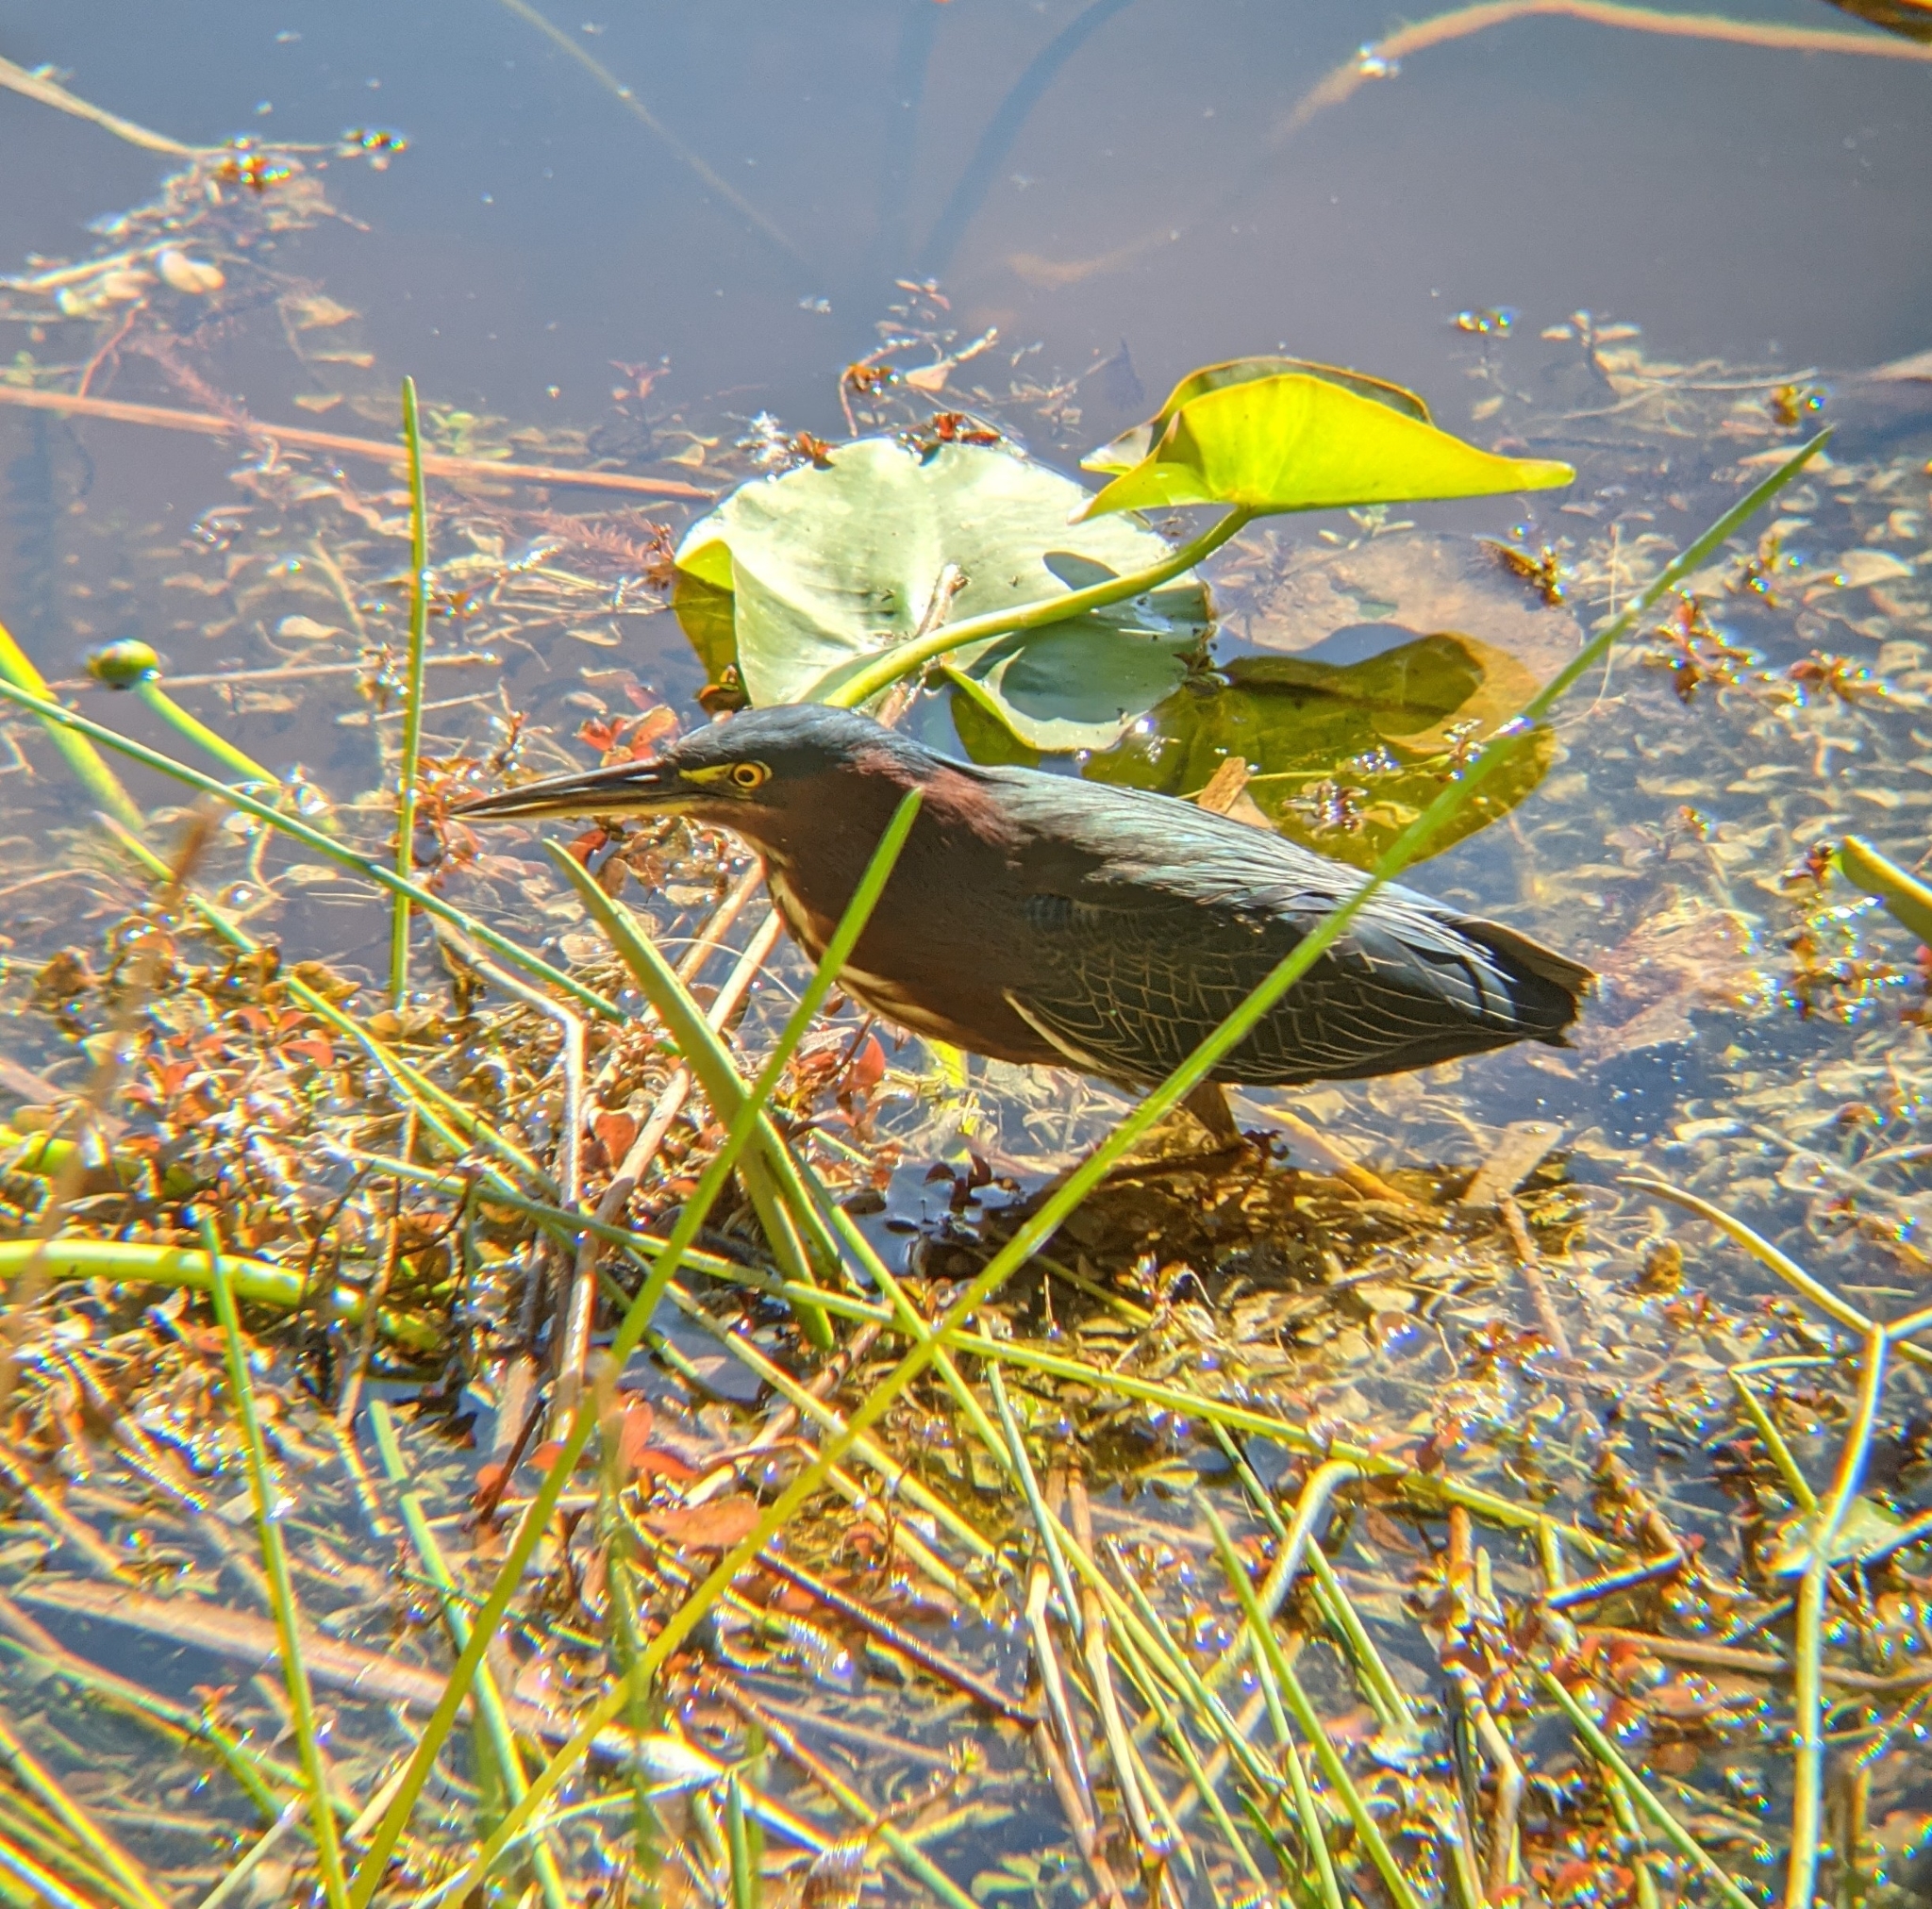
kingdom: Animalia
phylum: Chordata
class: Aves
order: Pelecaniformes
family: Ardeidae
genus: Butorides
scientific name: Butorides virescens
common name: Green heron
